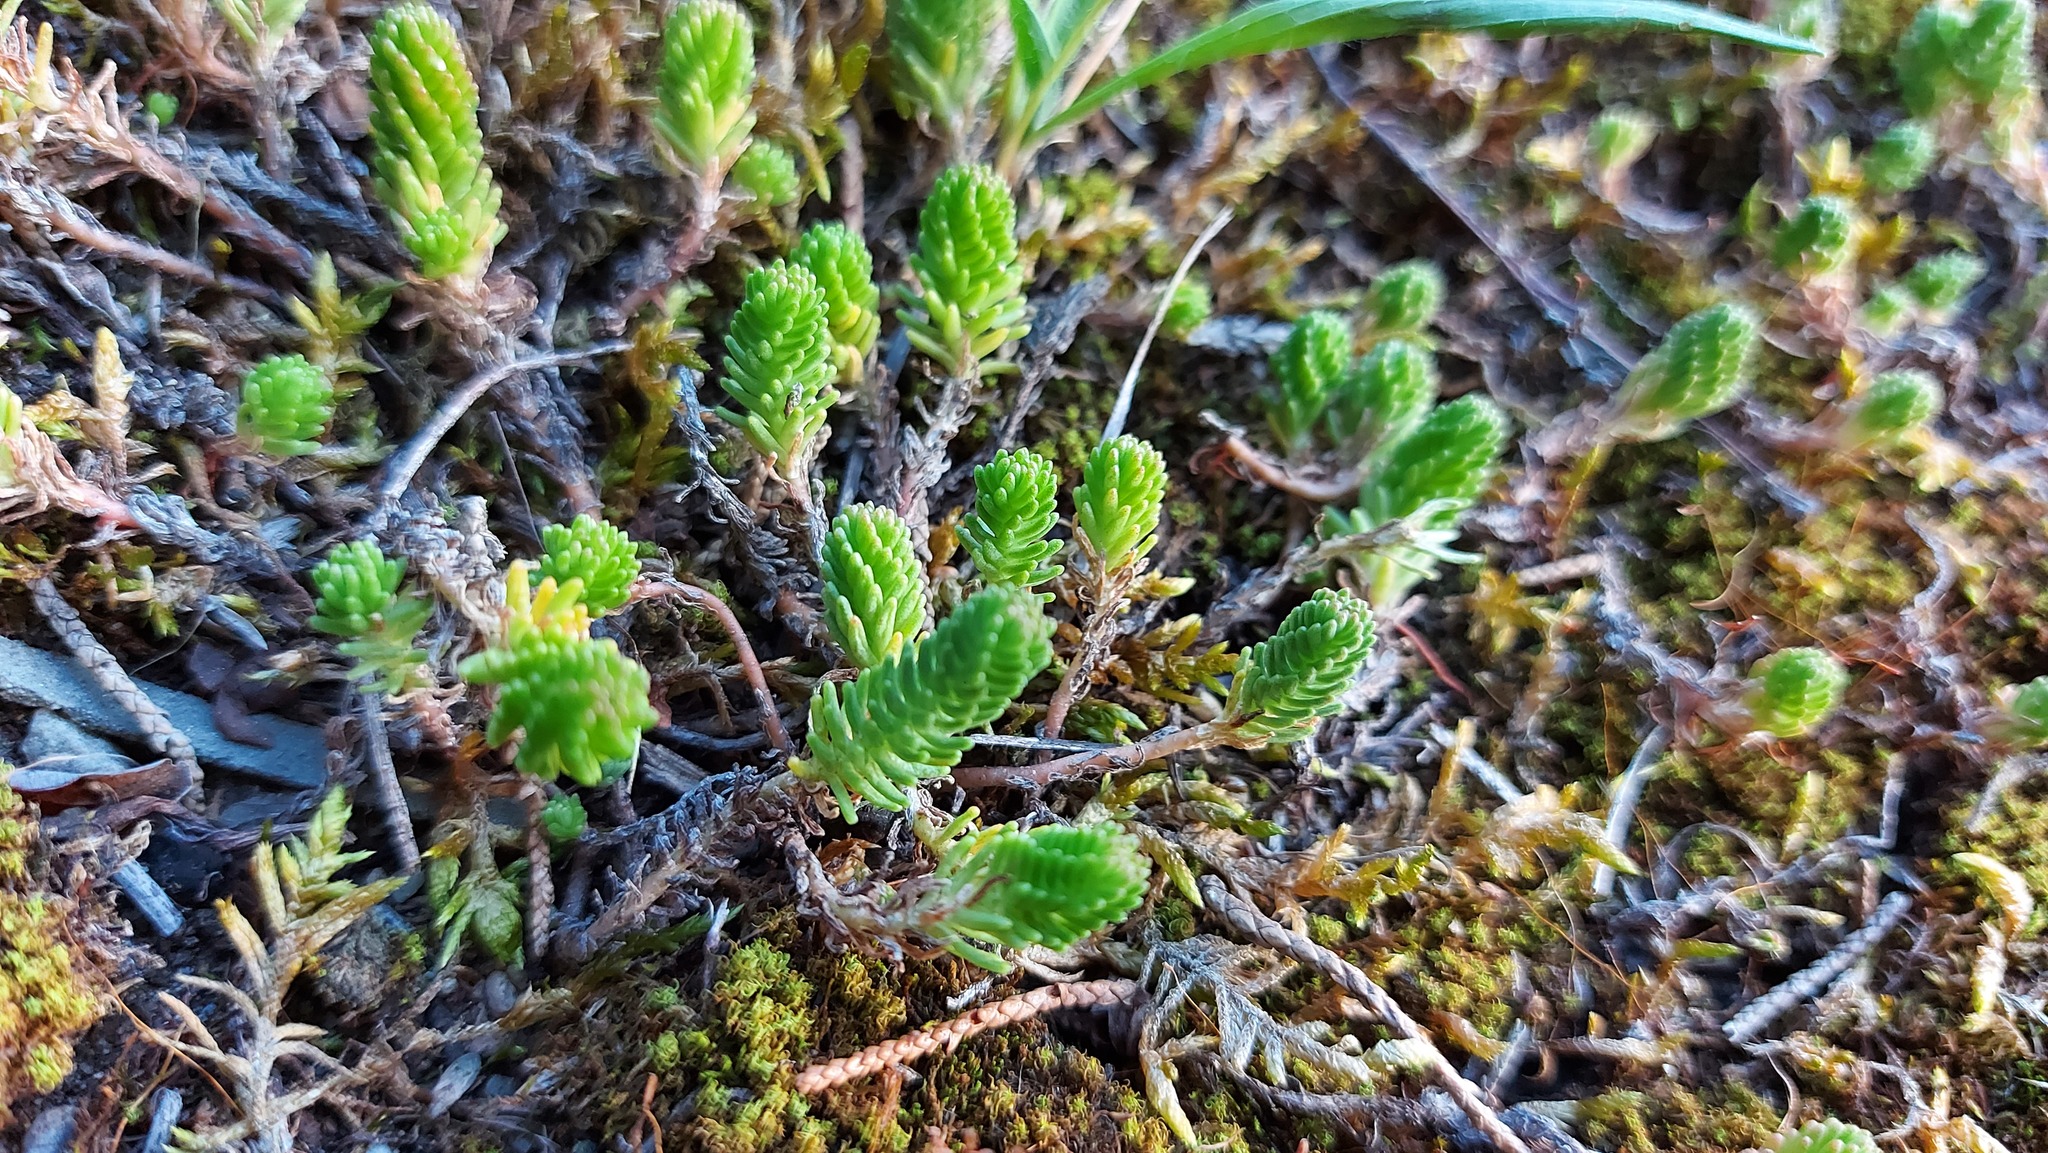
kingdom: Plantae
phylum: Tracheophyta
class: Magnoliopsida
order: Saxifragales
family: Crassulaceae
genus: Sedum
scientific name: Sedum sexangulare
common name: Tasteless stonecrop
